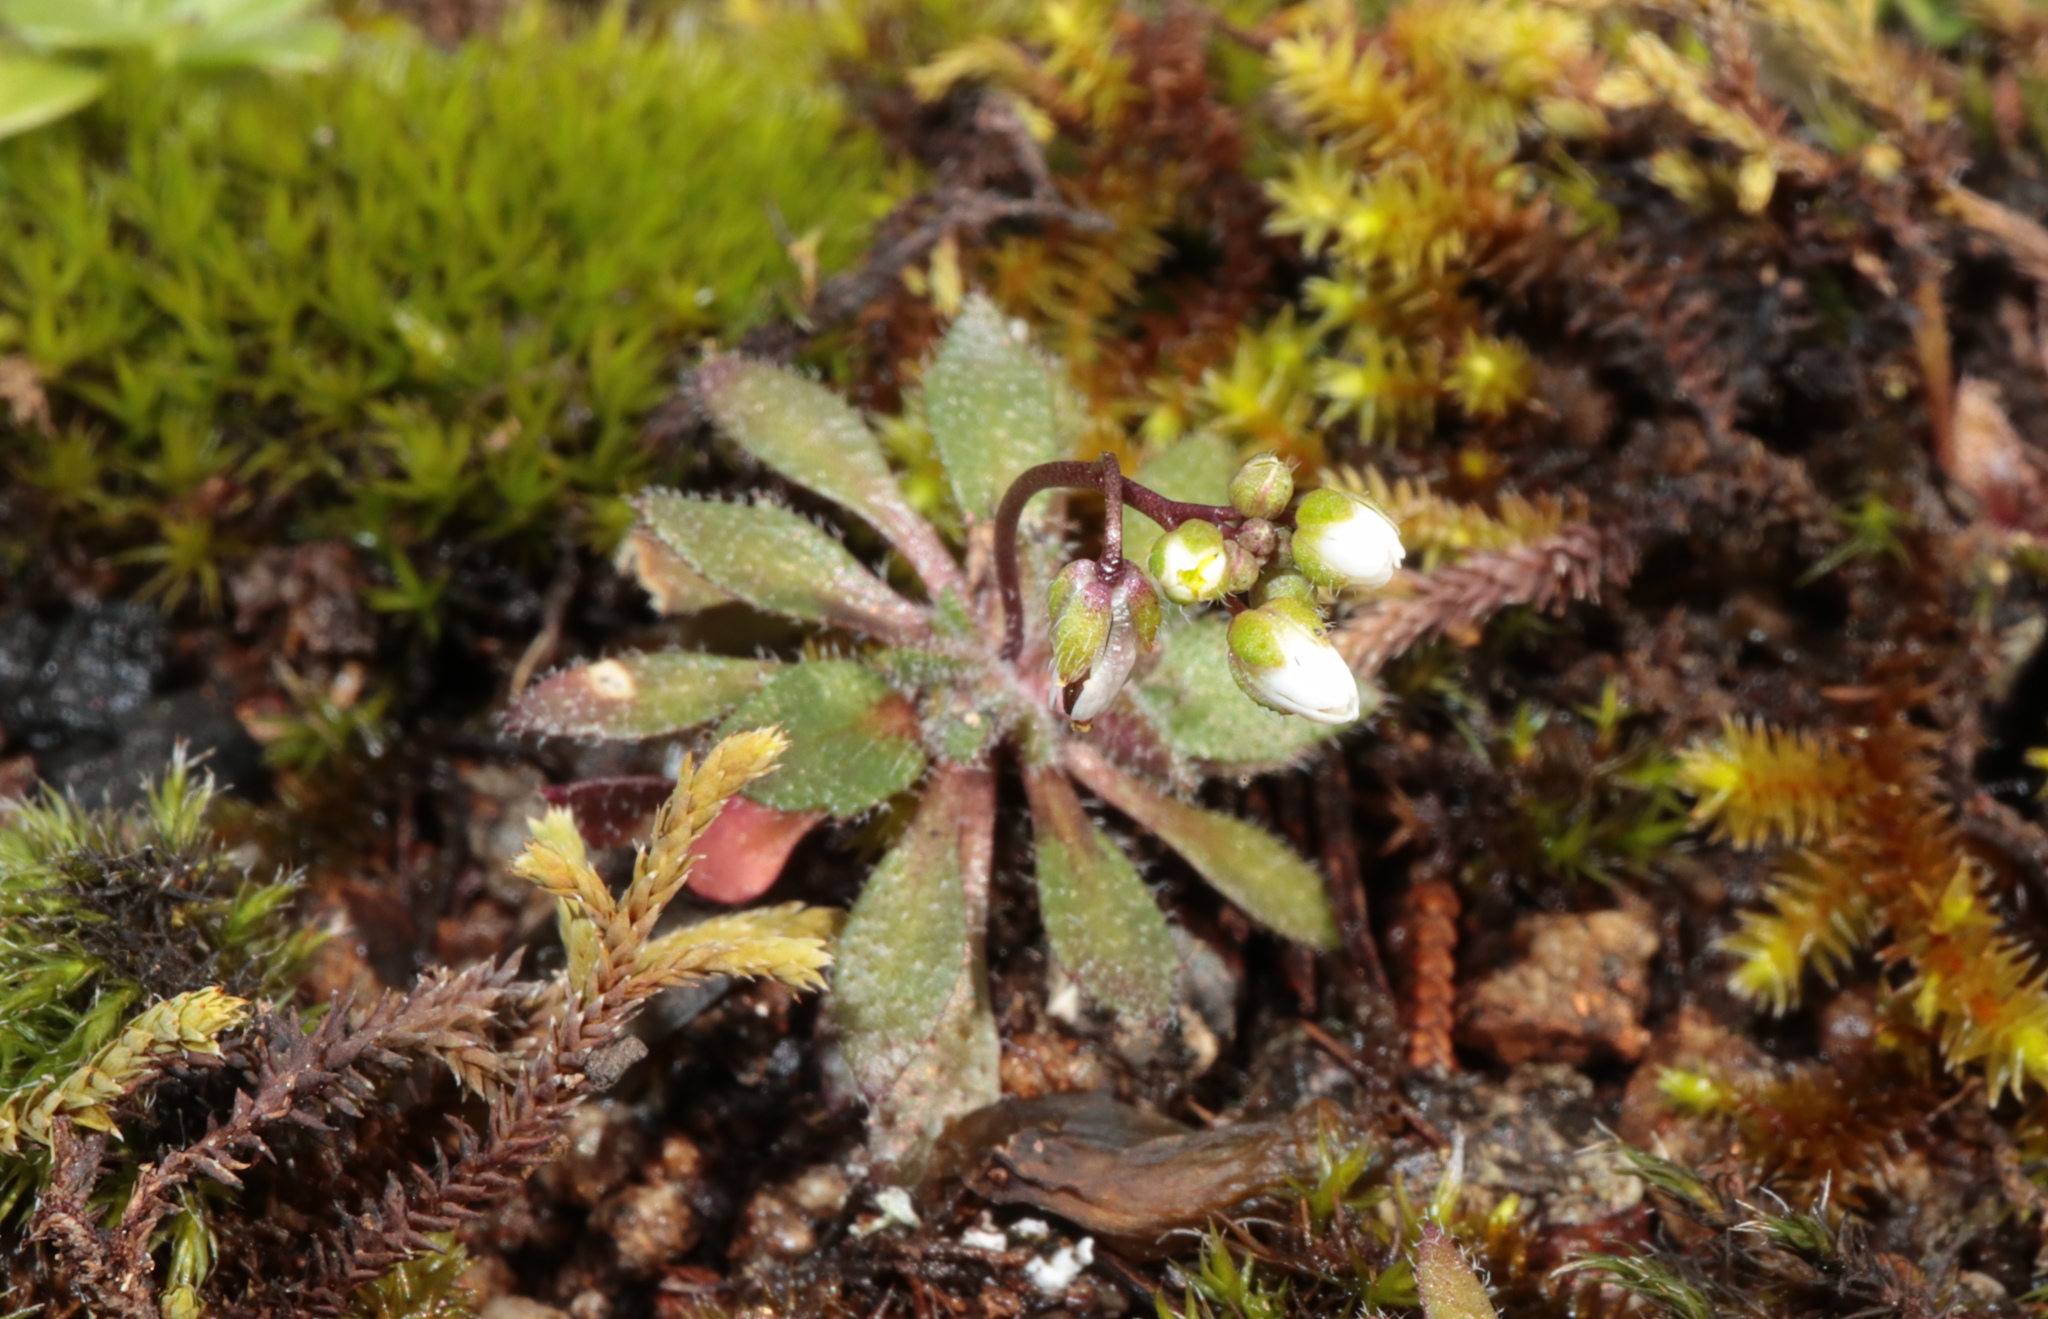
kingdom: Plantae
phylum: Tracheophyta
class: Magnoliopsida
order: Brassicales
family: Brassicaceae
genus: Draba
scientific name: Draba verna
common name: Spring draba
